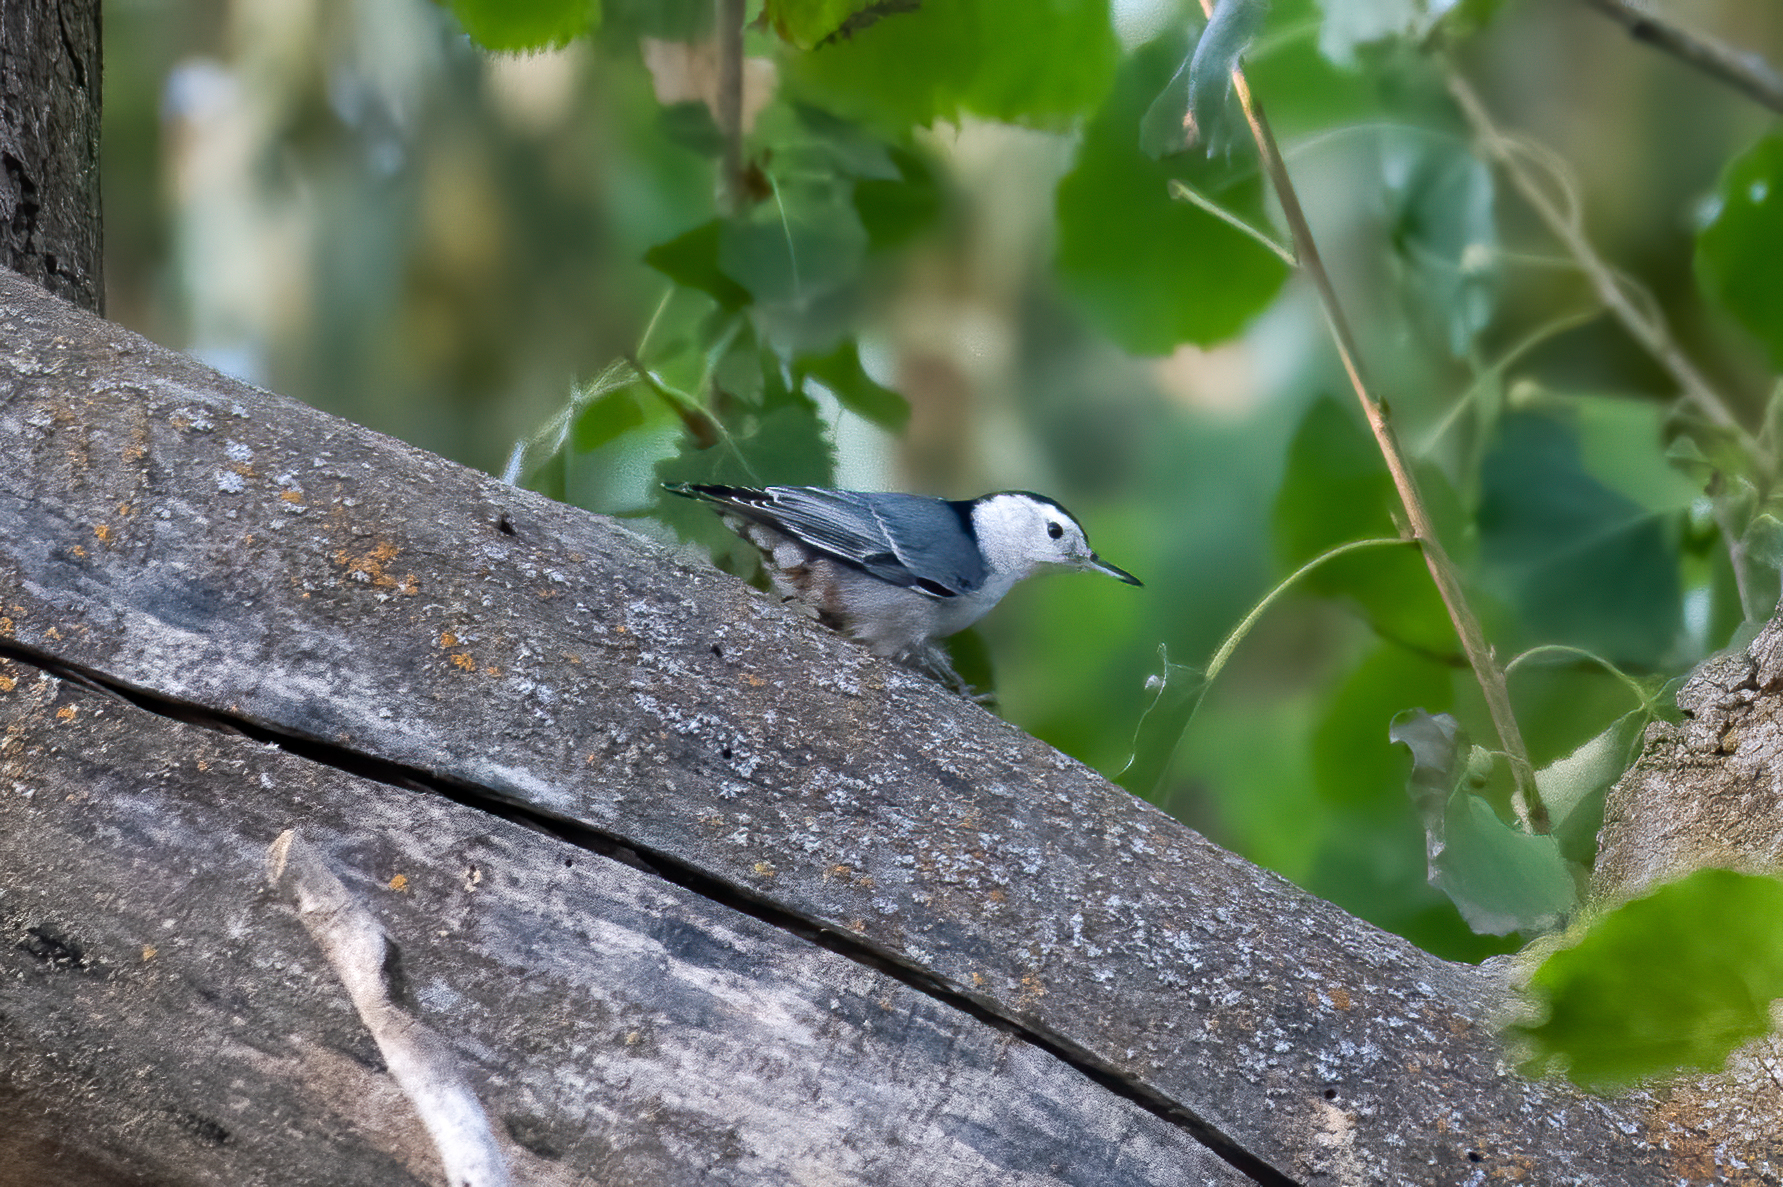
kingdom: Animalia
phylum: Chordata
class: Aves
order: Passeriformes
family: Sittidae
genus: Sitta
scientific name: Sitta carolinensis
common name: White-breasted nuthatch
